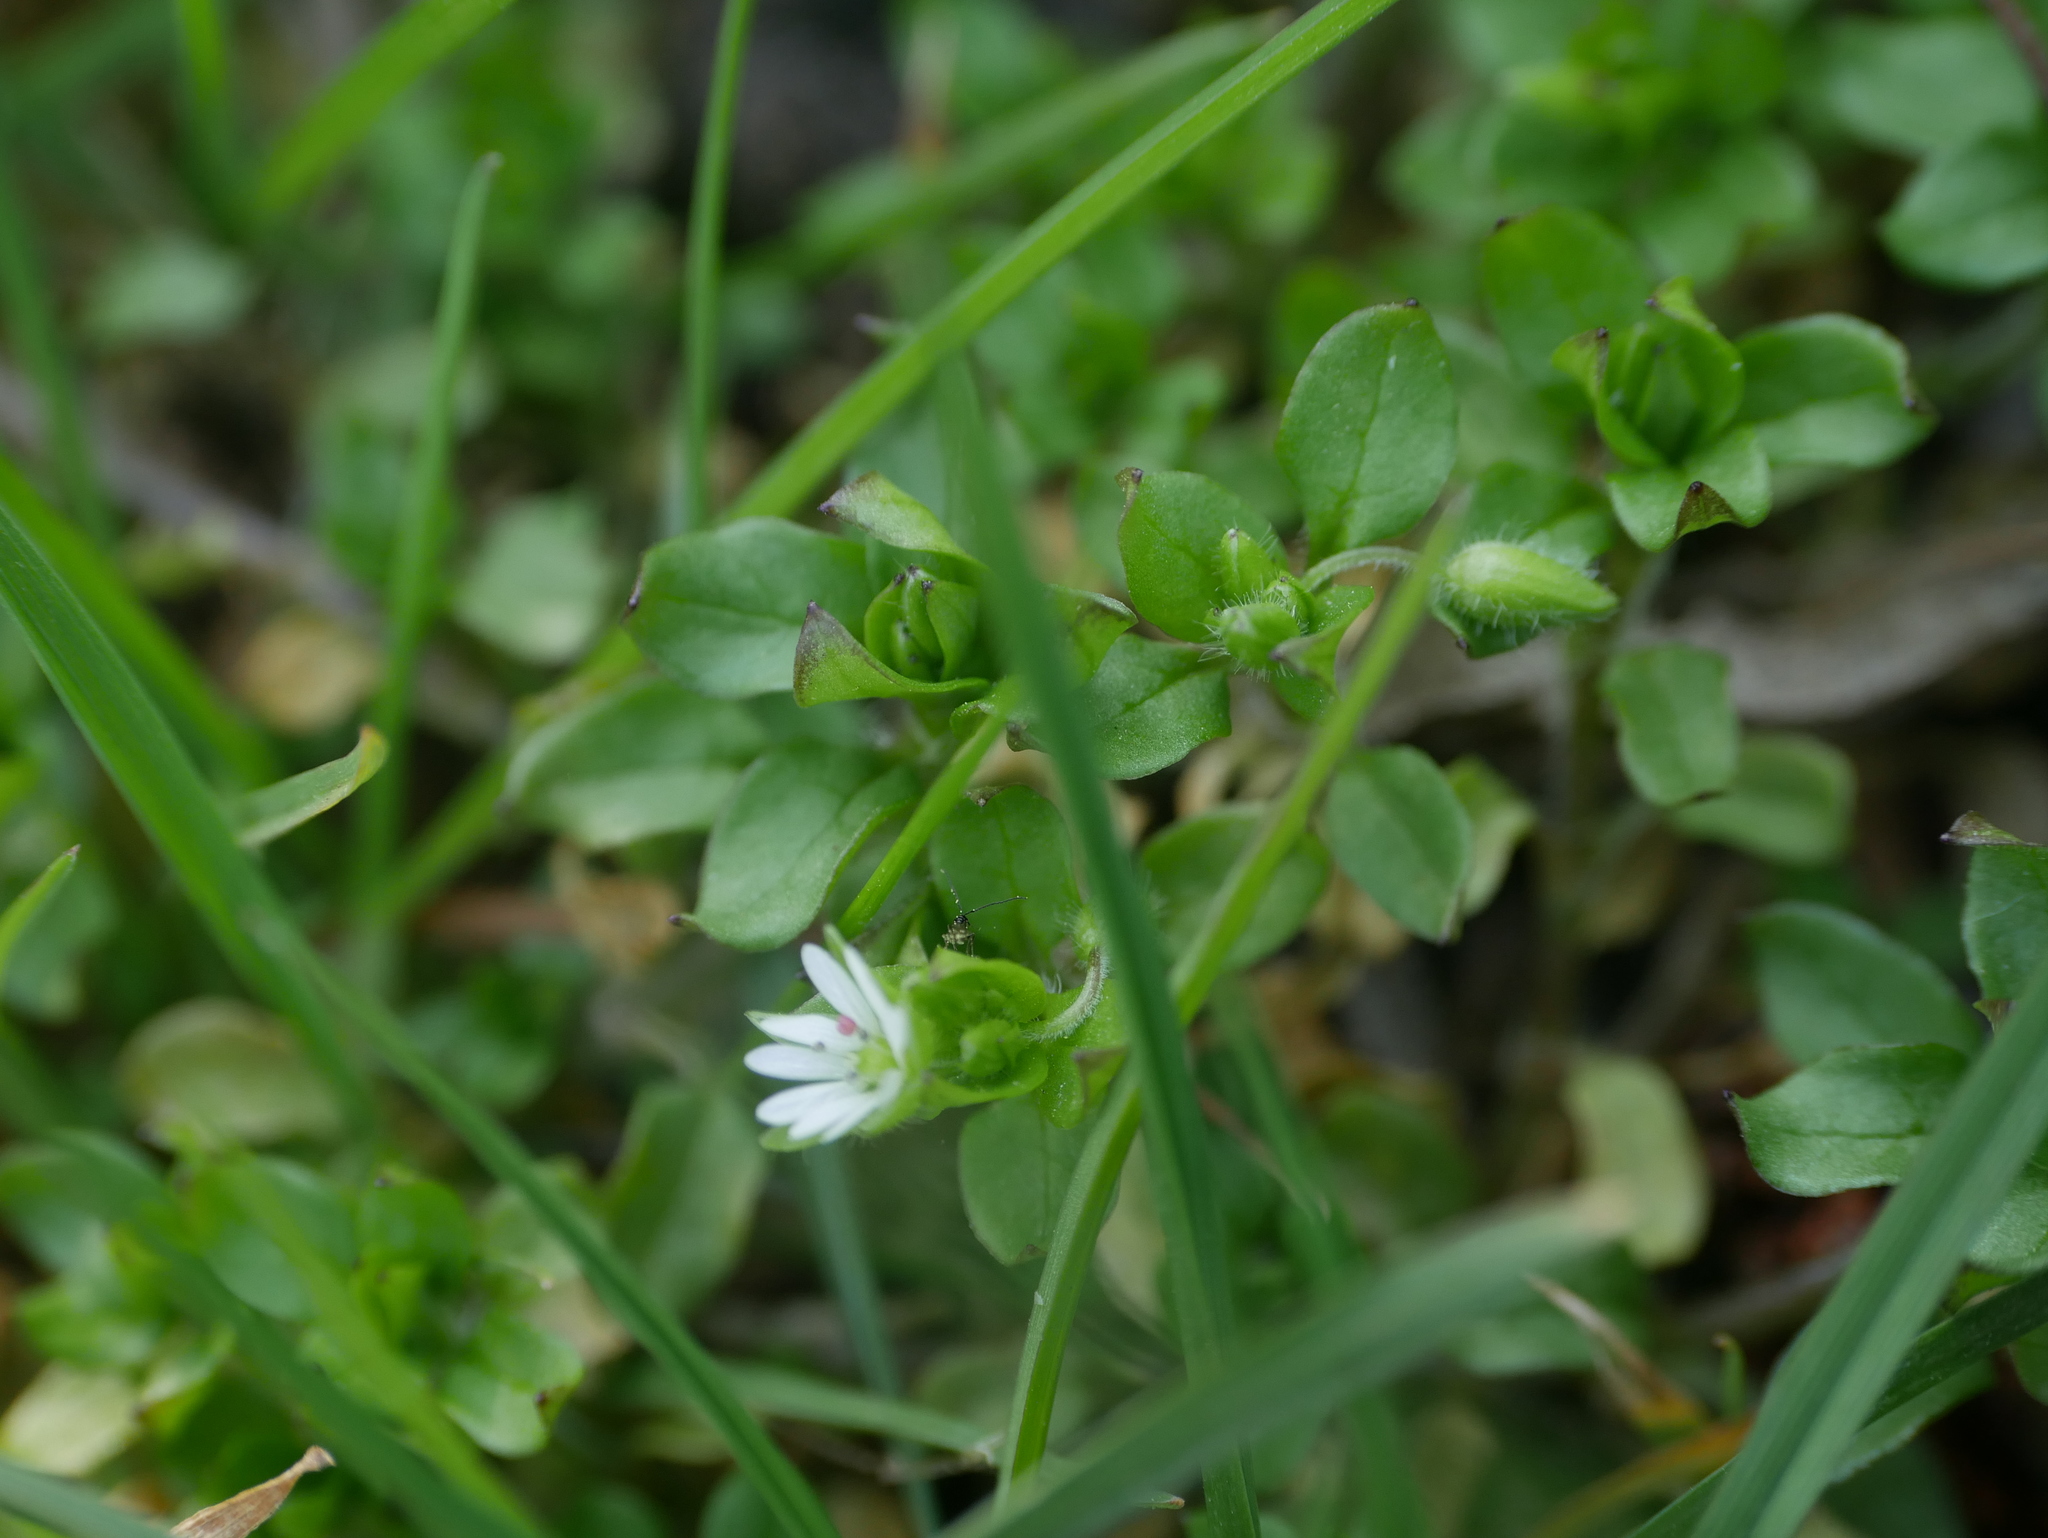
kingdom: Plantae
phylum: Tracheophyta
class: Magnoliopsida
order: Caryophyllales
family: Caryophyllaceae
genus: Stellaria
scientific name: Stellaria media
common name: Common chickweed
